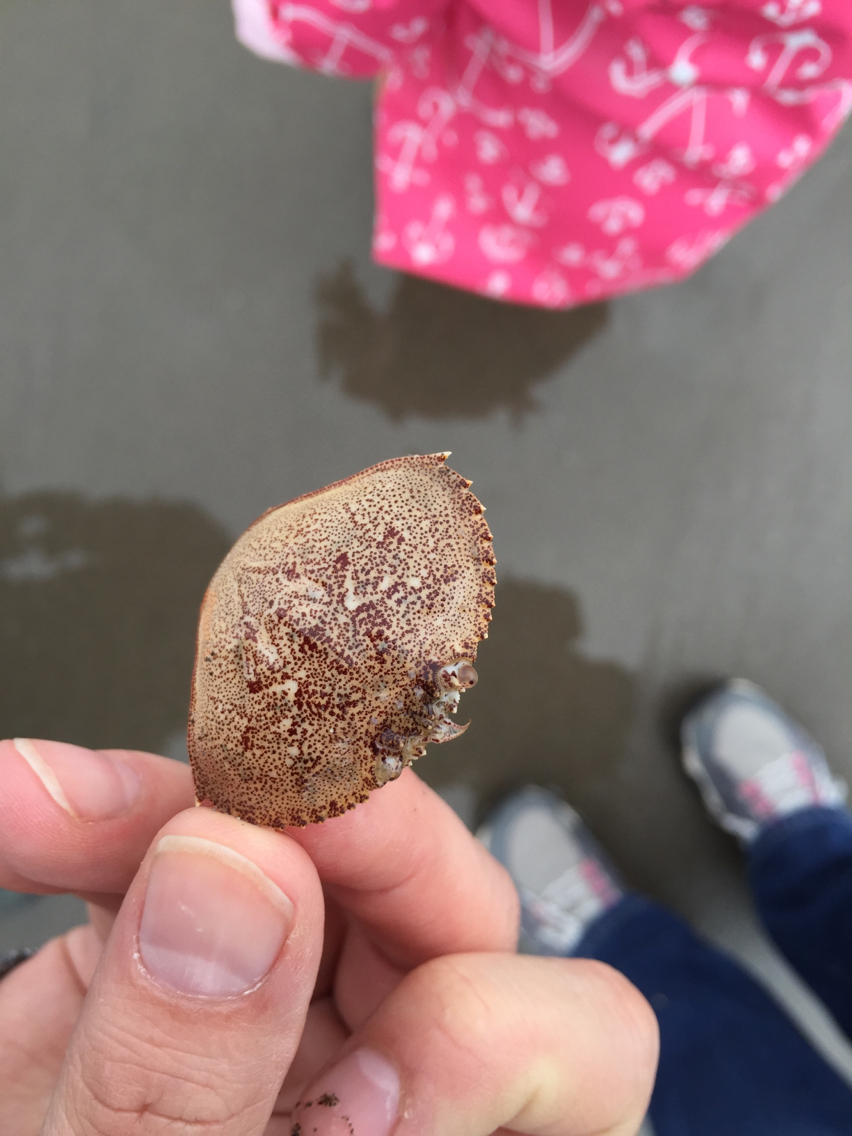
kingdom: Animalia
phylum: Arthropoda
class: Malacostraca
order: Decapoda
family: Cancridae
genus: Metacarcinus
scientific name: Metacarcinus magister
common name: Californian crab
